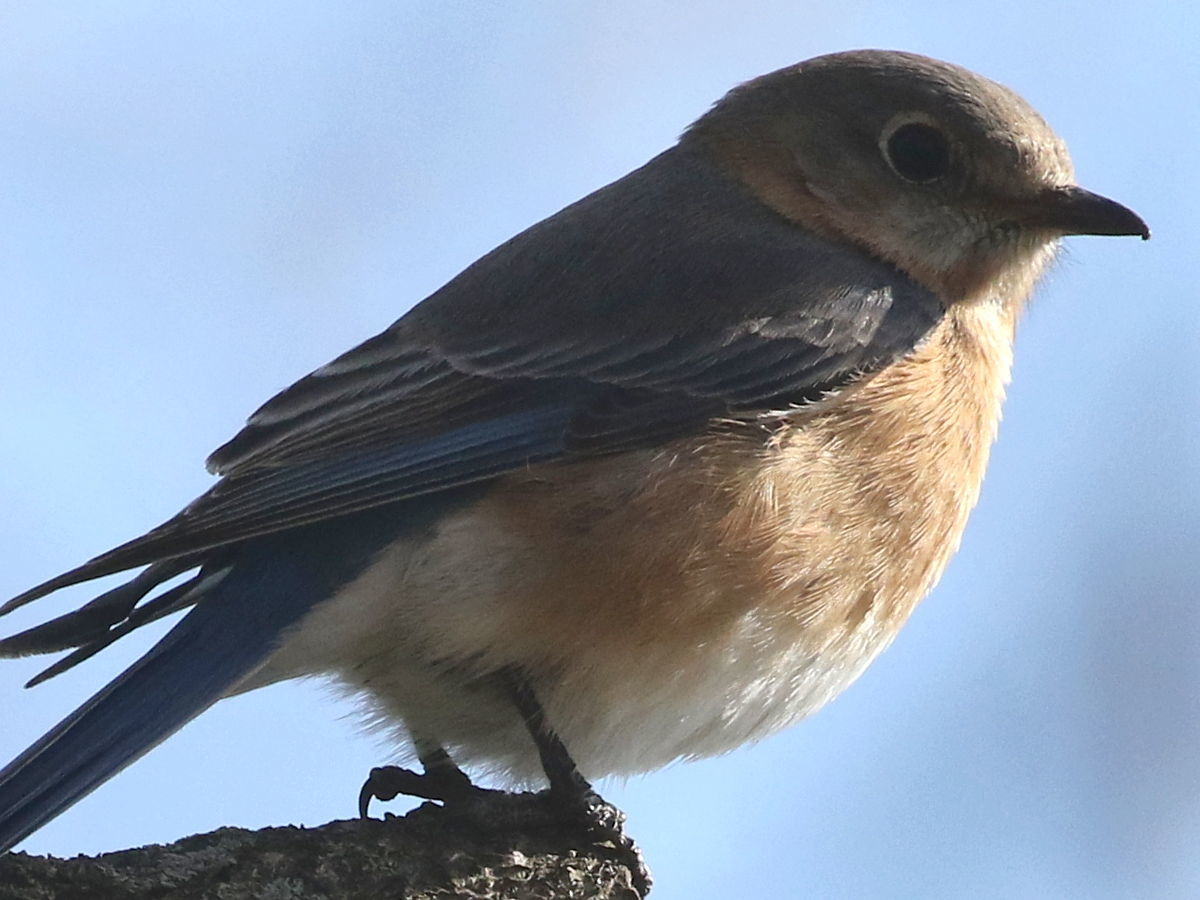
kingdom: Animalia
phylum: Chordata
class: Aves
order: Passeriformes
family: Turdidae
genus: Sialia
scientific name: Sialia sialis
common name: Eastern bluebird
